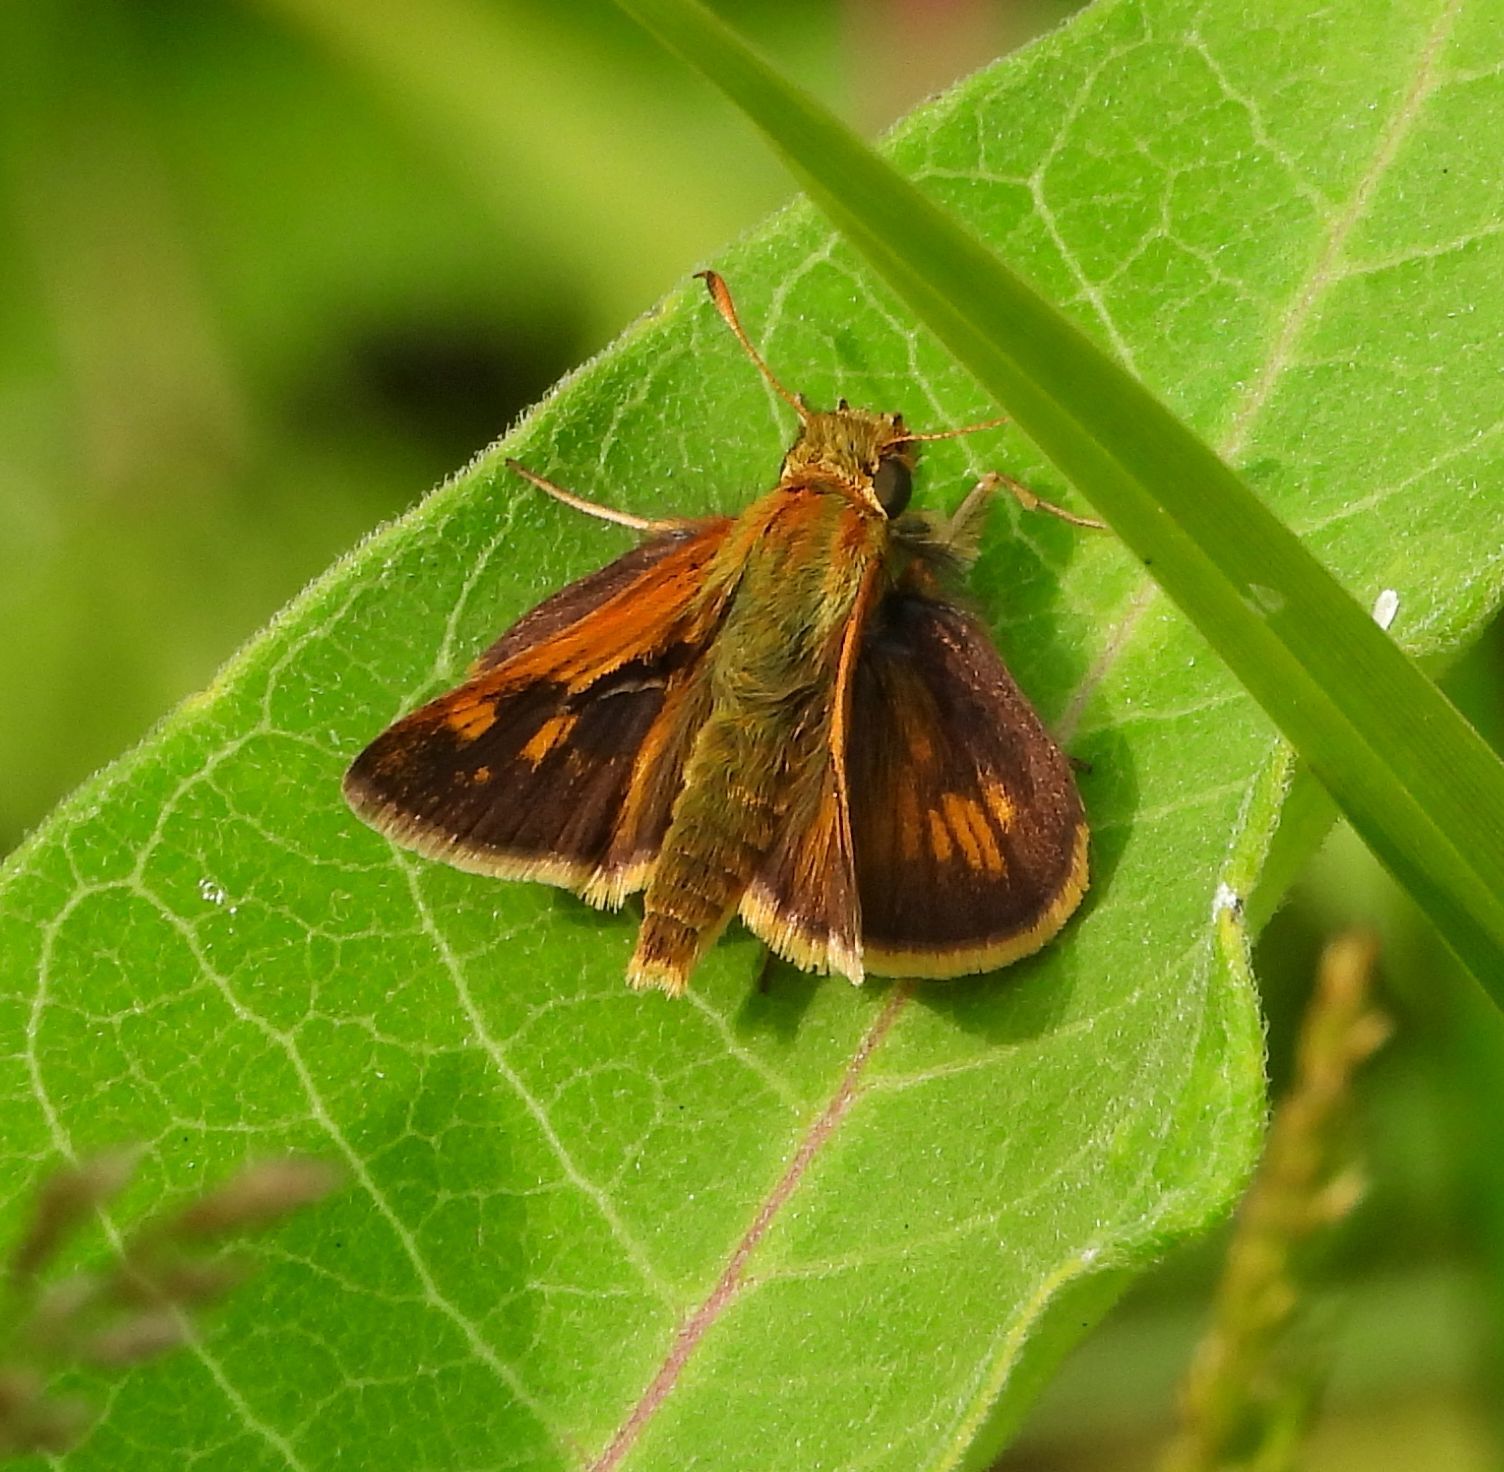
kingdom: Animalia
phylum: Arthropoda
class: Insecta
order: Lepidoptera
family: Hesperiidae
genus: Polites
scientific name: Polites coras
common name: Peck's skipper
